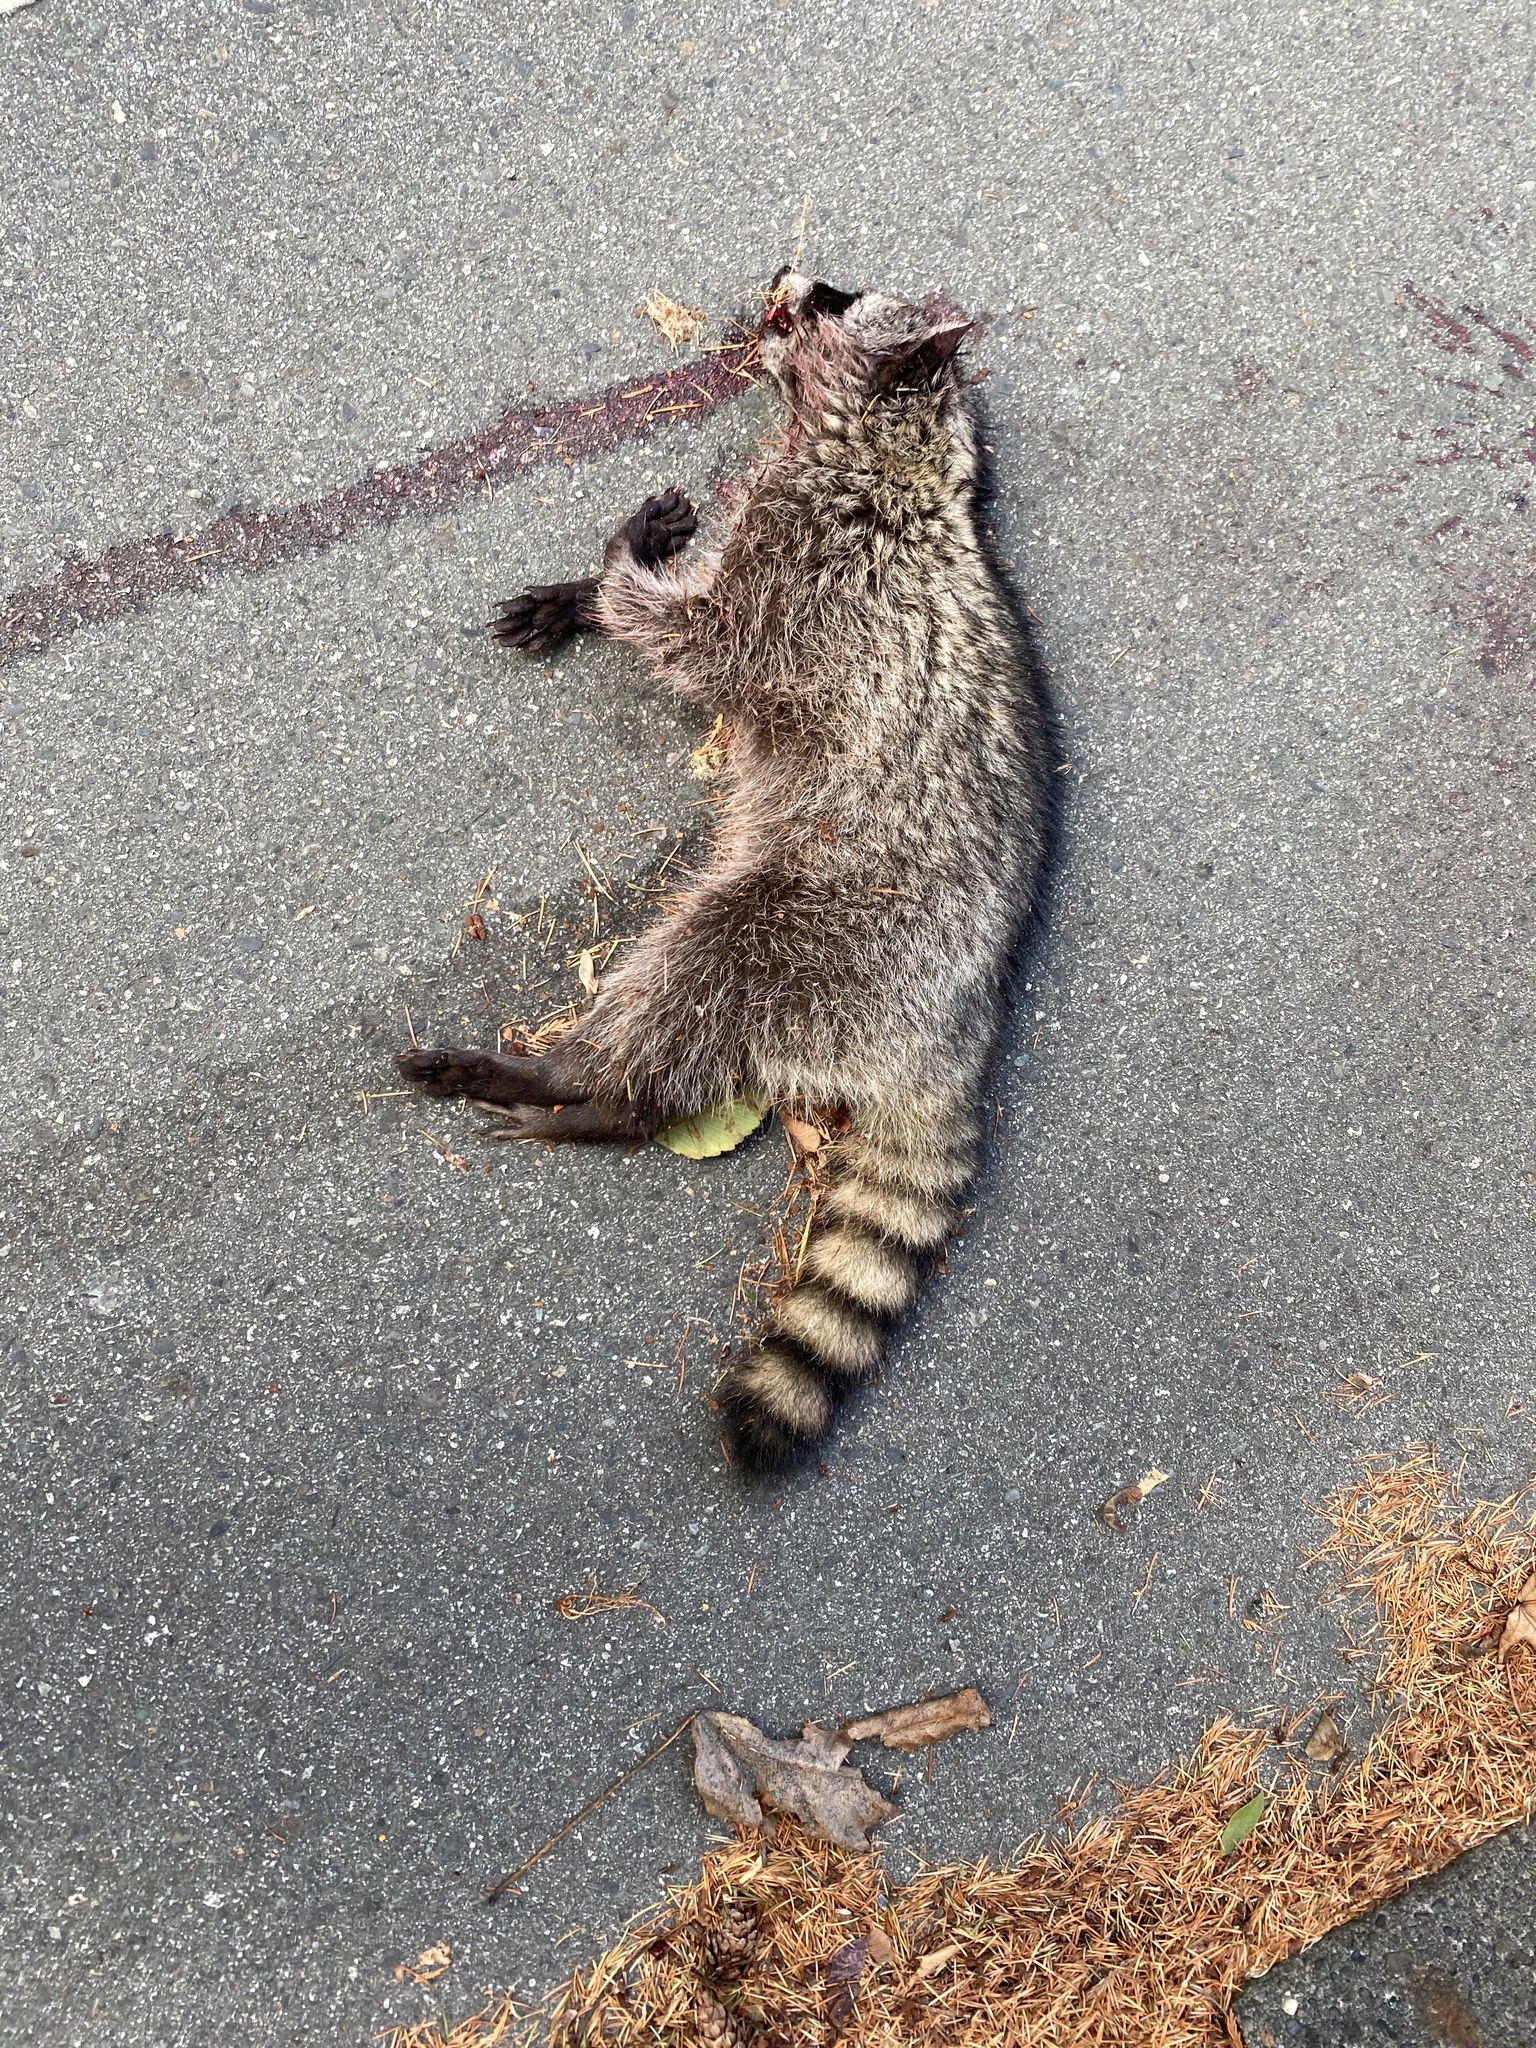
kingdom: Animalia
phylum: Chordata
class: Mammalia
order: Carnivora
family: Procyonidae
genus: Procyon
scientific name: Procyon lotor
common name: Raccoon
